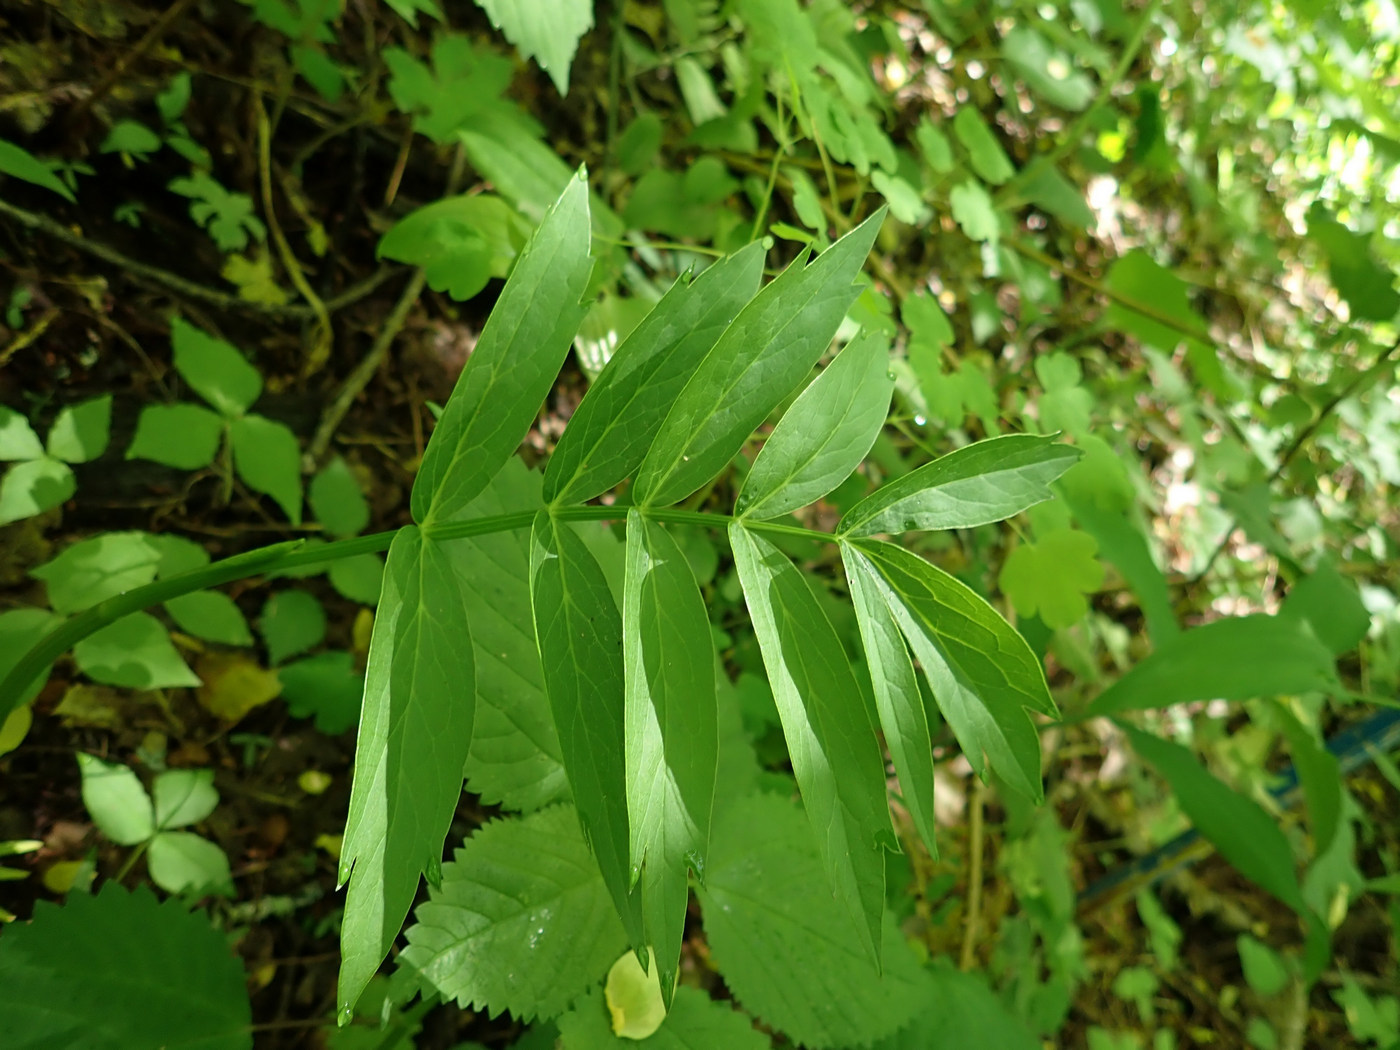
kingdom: Plantae
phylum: Tracheophyta
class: Magnoliopsida
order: Apiales
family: Apiaceae
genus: Oxypolis
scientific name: Oxypolis rigidior
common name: Cowbane
